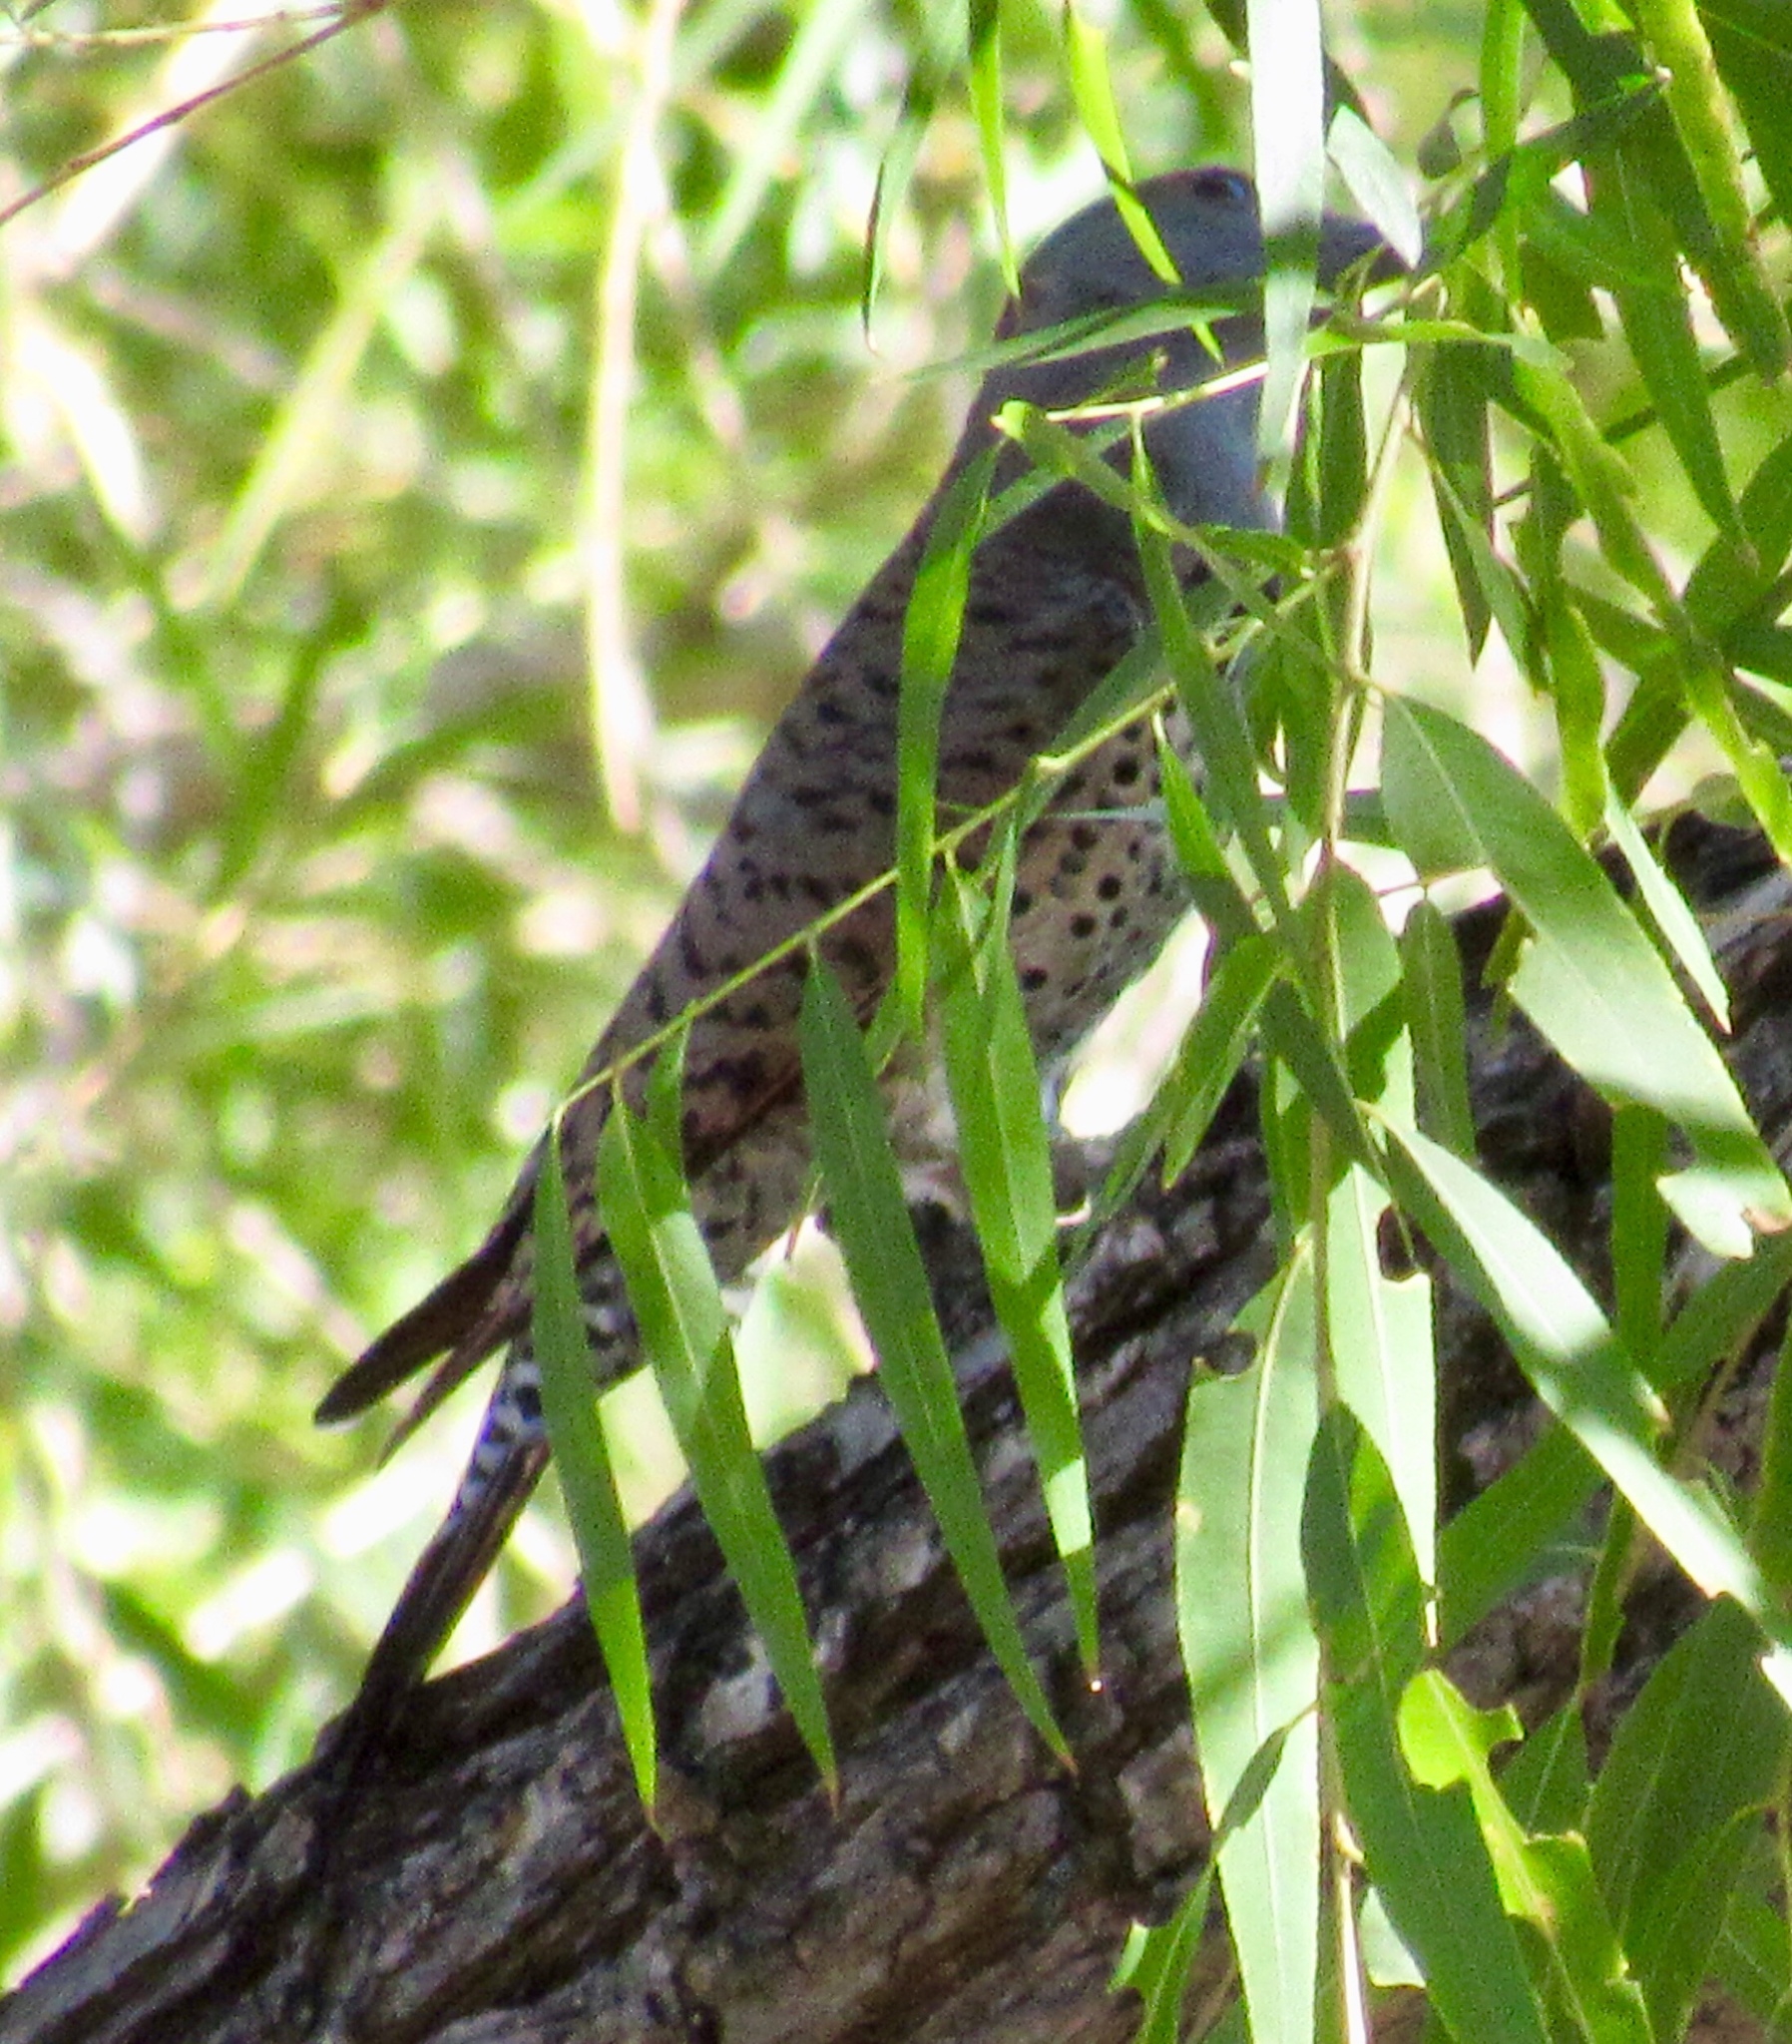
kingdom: Animalia
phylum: Chordata
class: Aves
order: Piciformes
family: Picidae
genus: Colaptes
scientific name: Colaptes auratus
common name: Northern flicker
